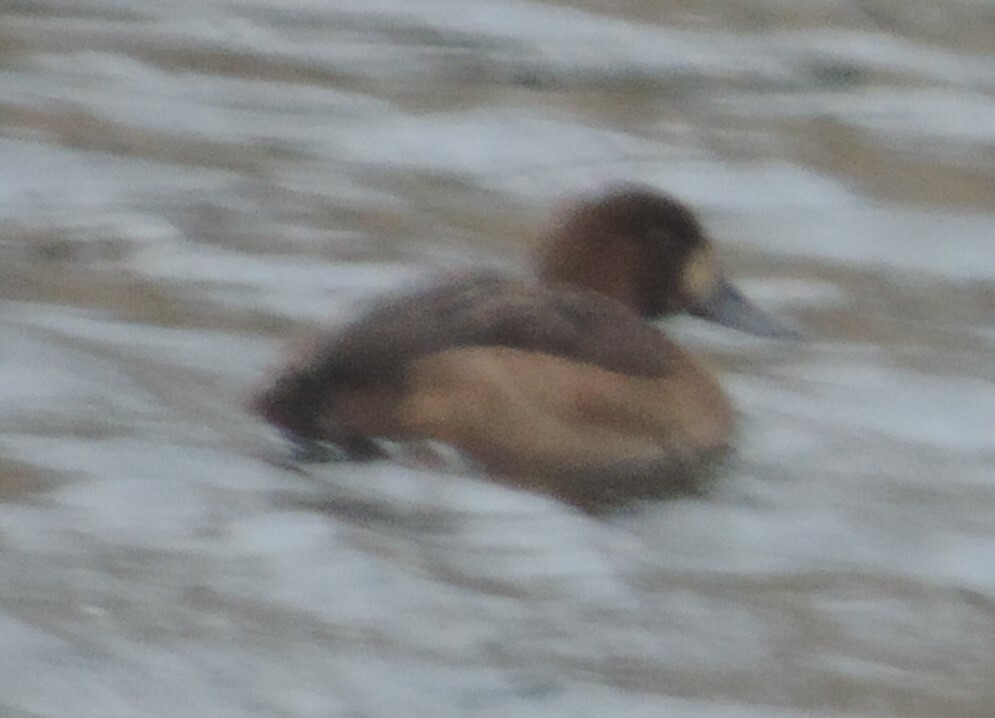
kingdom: Animalia
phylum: Chordata
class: Aves
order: Anseriformes
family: Anatidae
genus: Aythya
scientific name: Aythya marila
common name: Greater scaup
